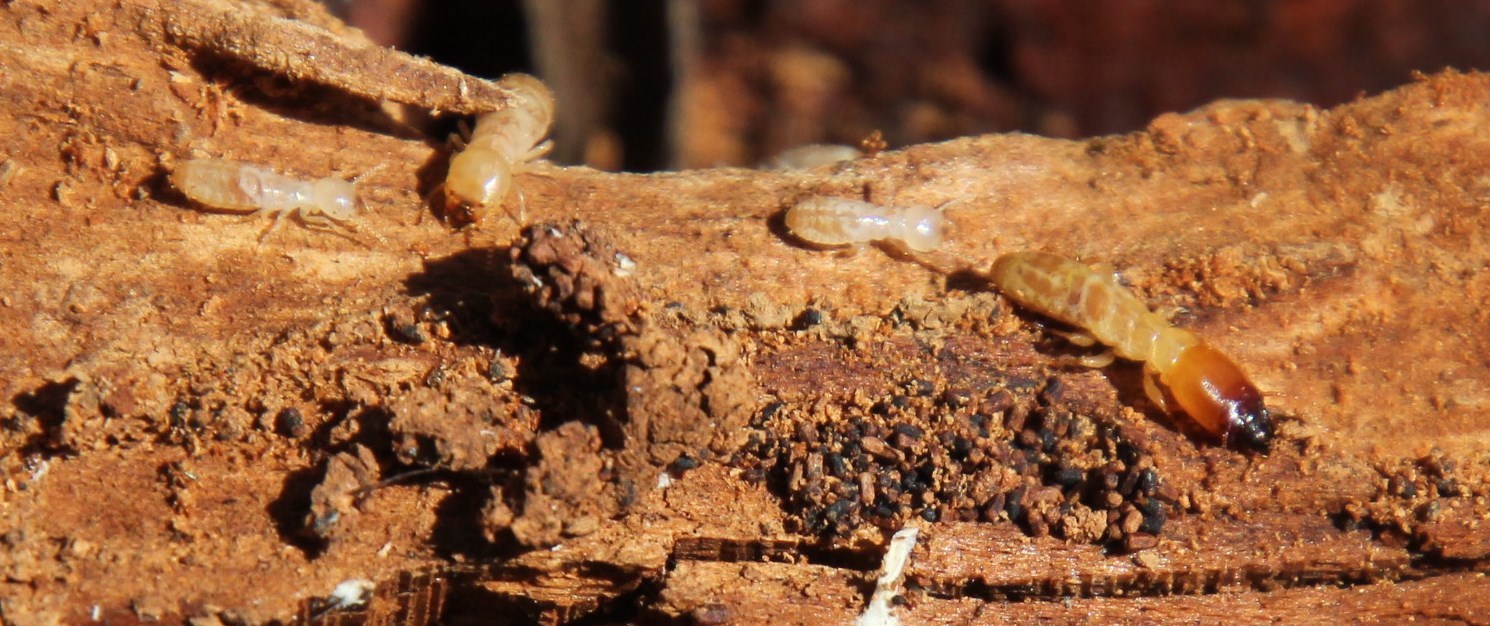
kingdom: Animalia
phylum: Arthropoda
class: Insecta
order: Blattodea
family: Stolotermitidae
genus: Porotermes
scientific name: Porotermes planiceps
